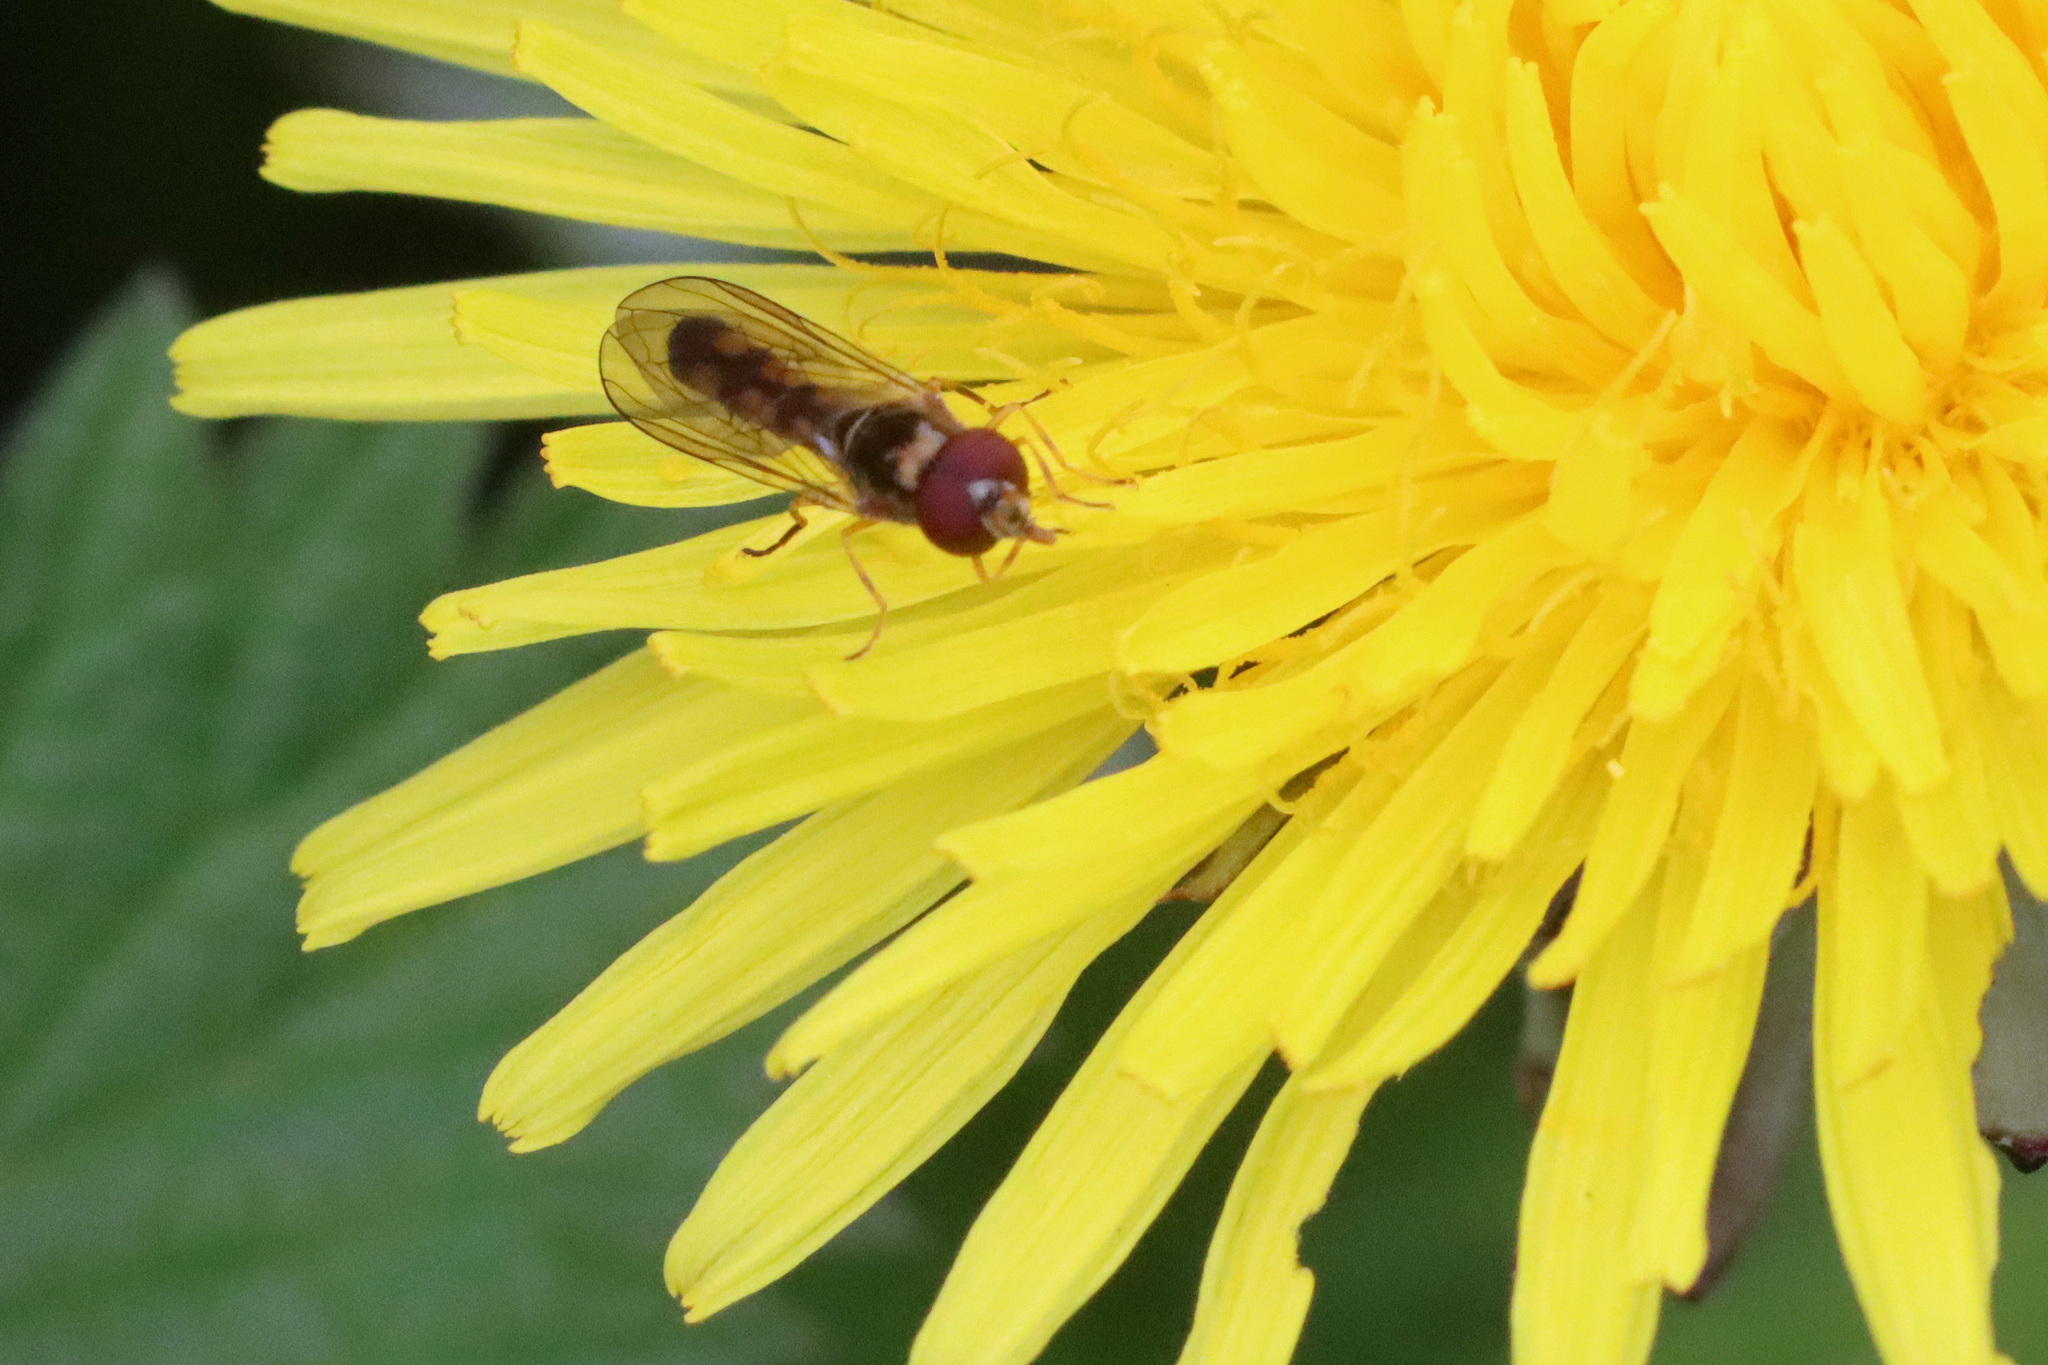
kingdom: Animalia
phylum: Arthropoda
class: Insecta
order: Diptera
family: Syrphidae
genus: Melanostoma
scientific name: Melanostoma scalare
